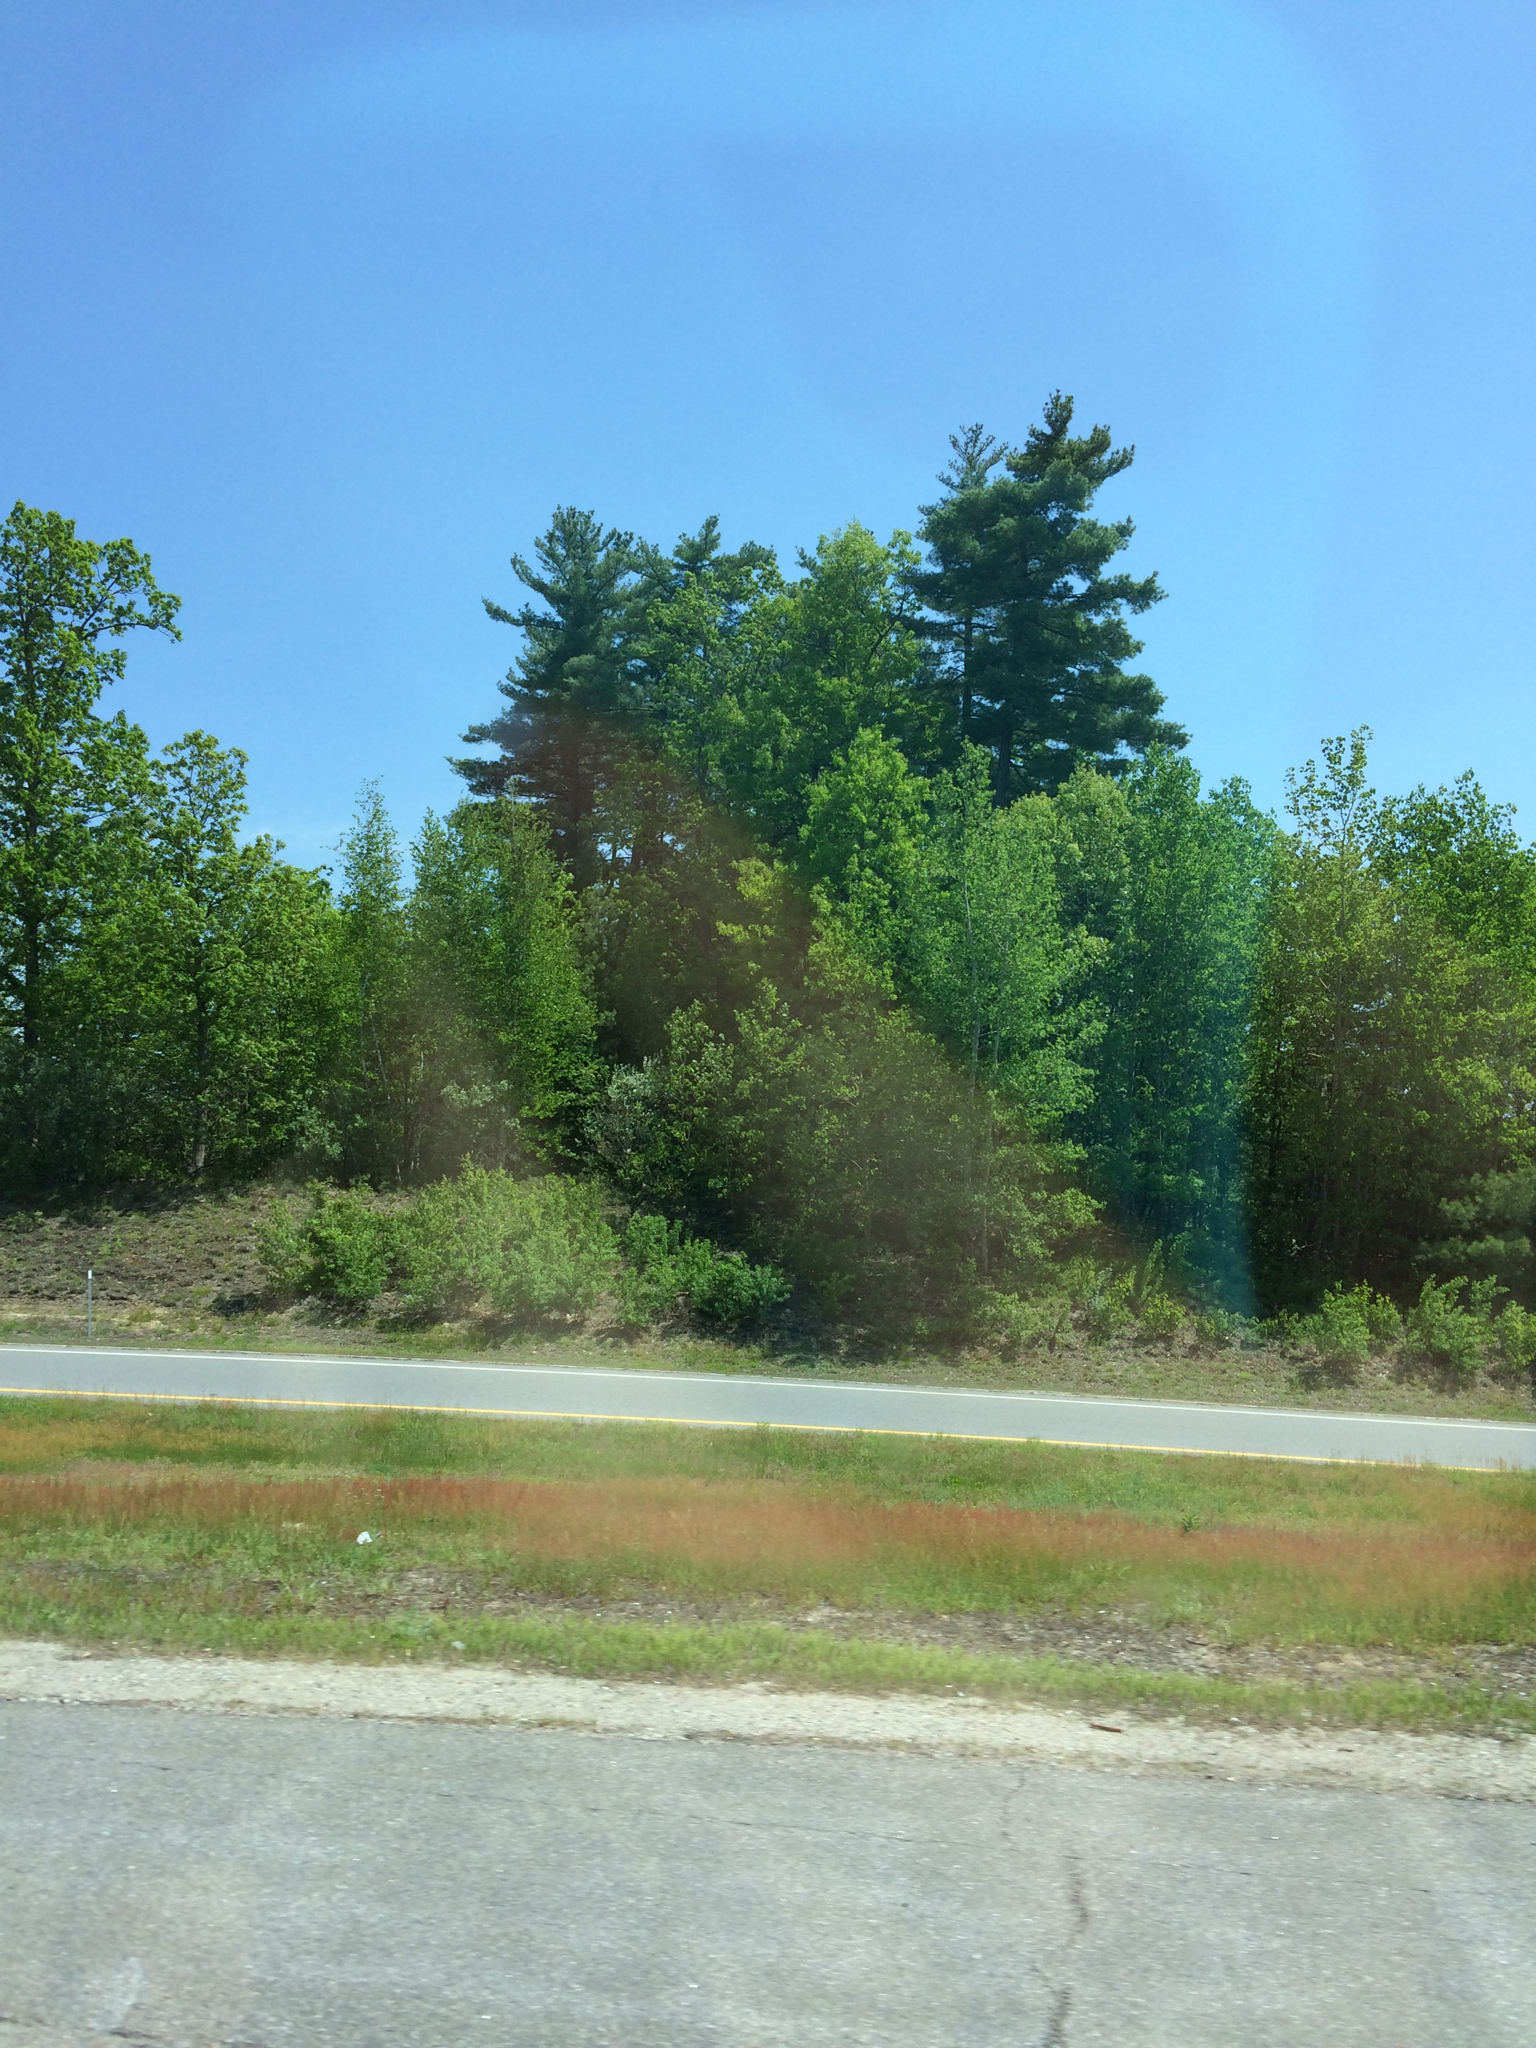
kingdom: Plantae
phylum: Tracheophyta
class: Pinopsida
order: Pinales
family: Pinaceae
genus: Pinus
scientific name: Pinus strobus
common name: Weymouth pine
